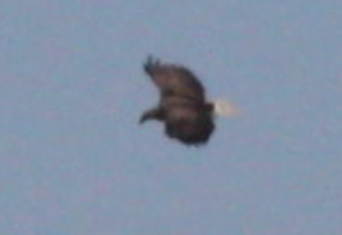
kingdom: Animalia
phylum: Chordata
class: Aves
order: Accipitriformes
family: Accipitridae
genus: Haliaeetus
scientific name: Haliaeetus albicilla
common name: White-tailed eagle
